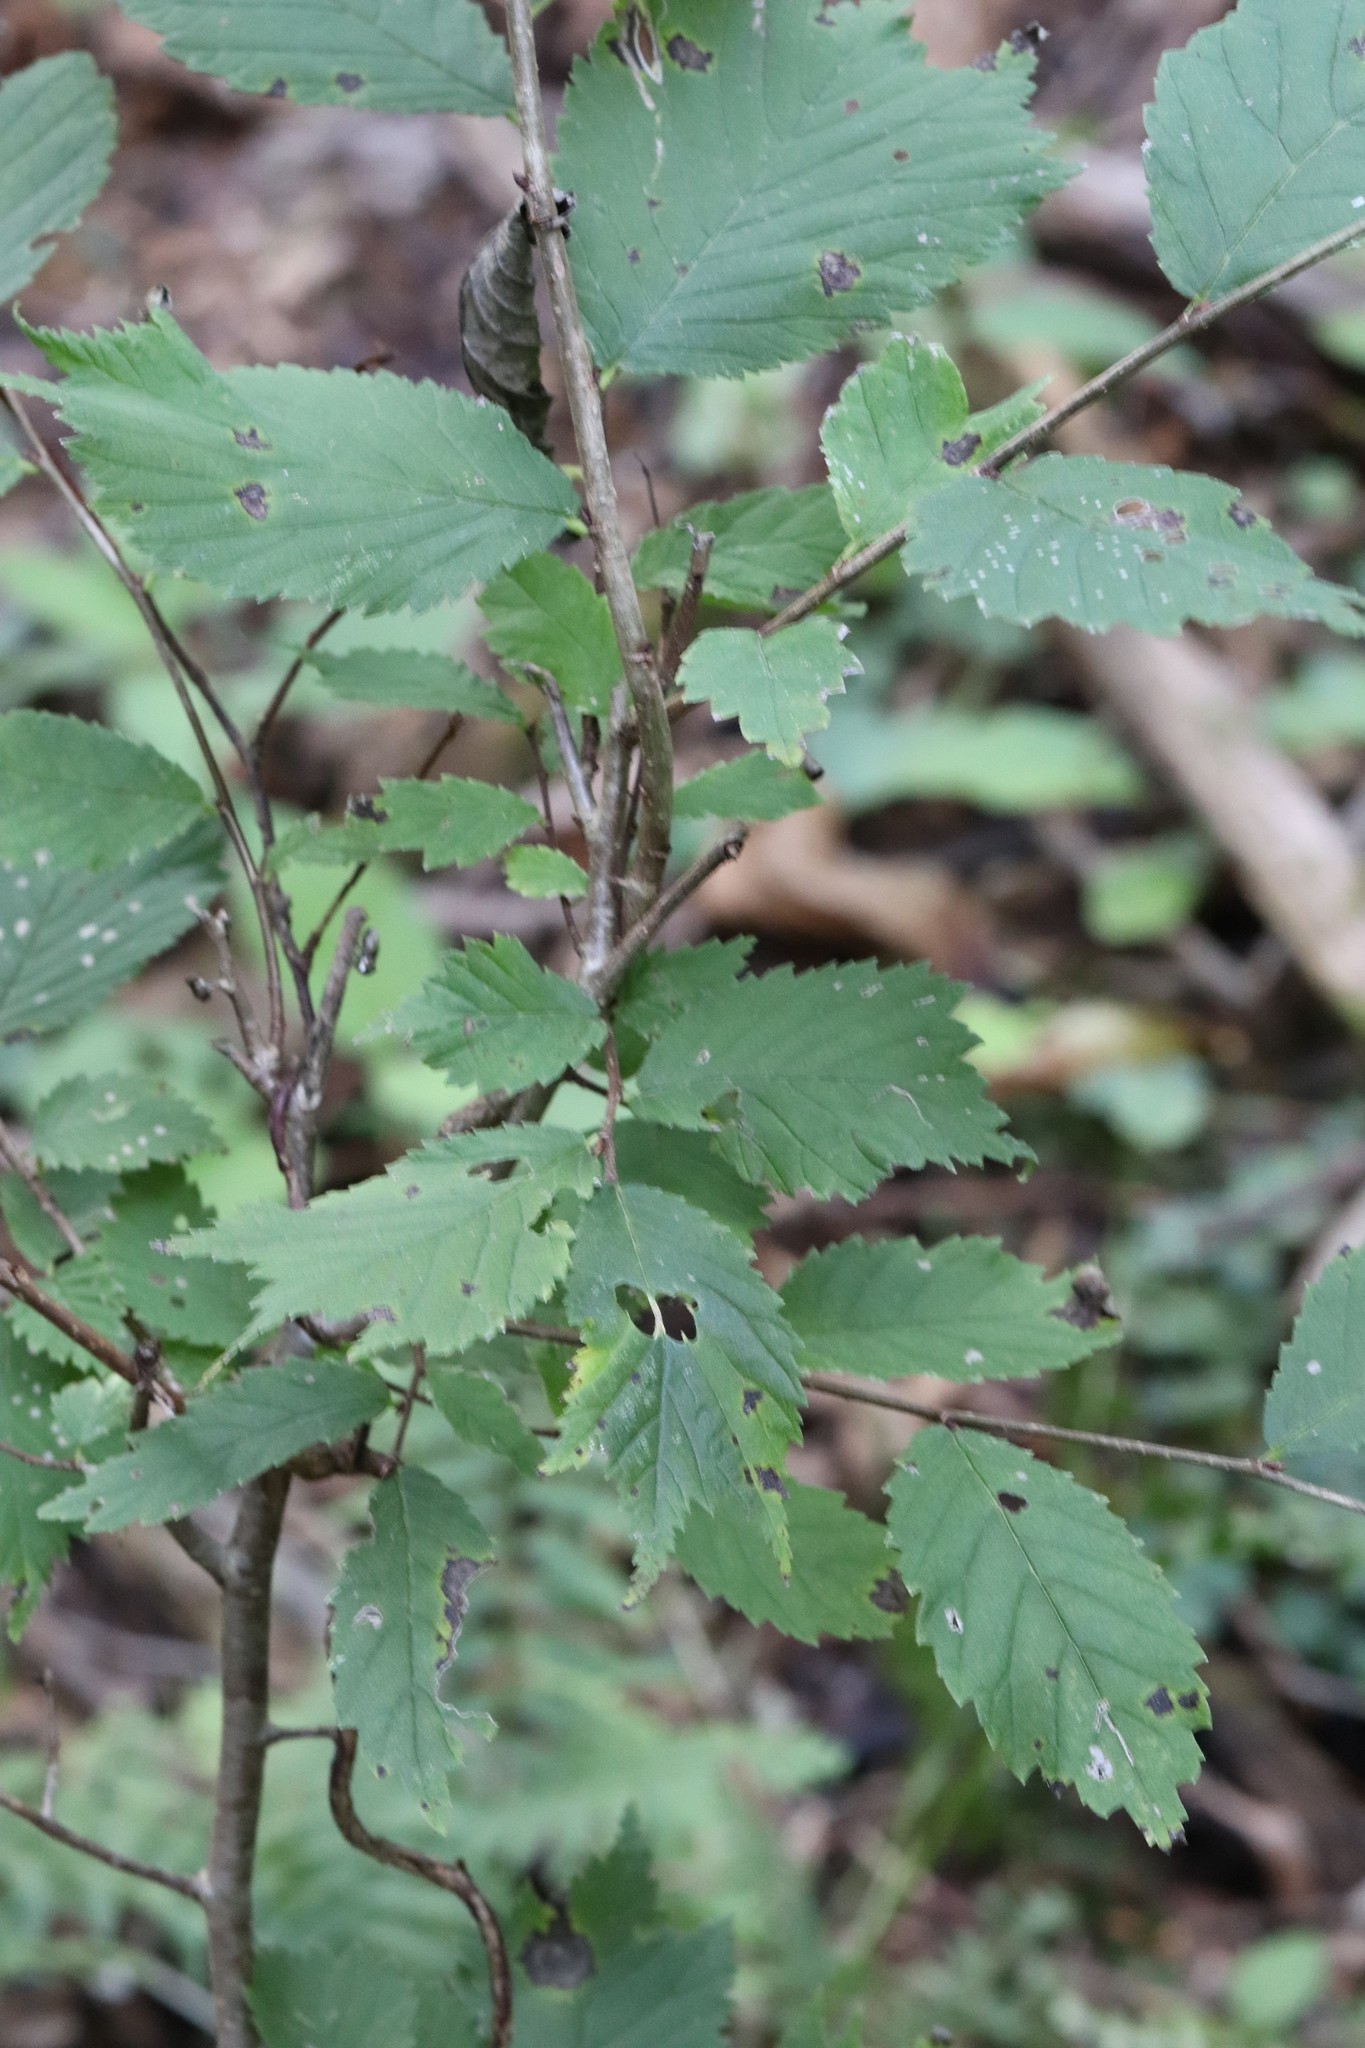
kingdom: Plantae
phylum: Tracheophyta
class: Magnoliopsida
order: Rosales
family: Ulmaceae
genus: Ulmus
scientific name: Ulmus laciniata
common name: Japanese elm
